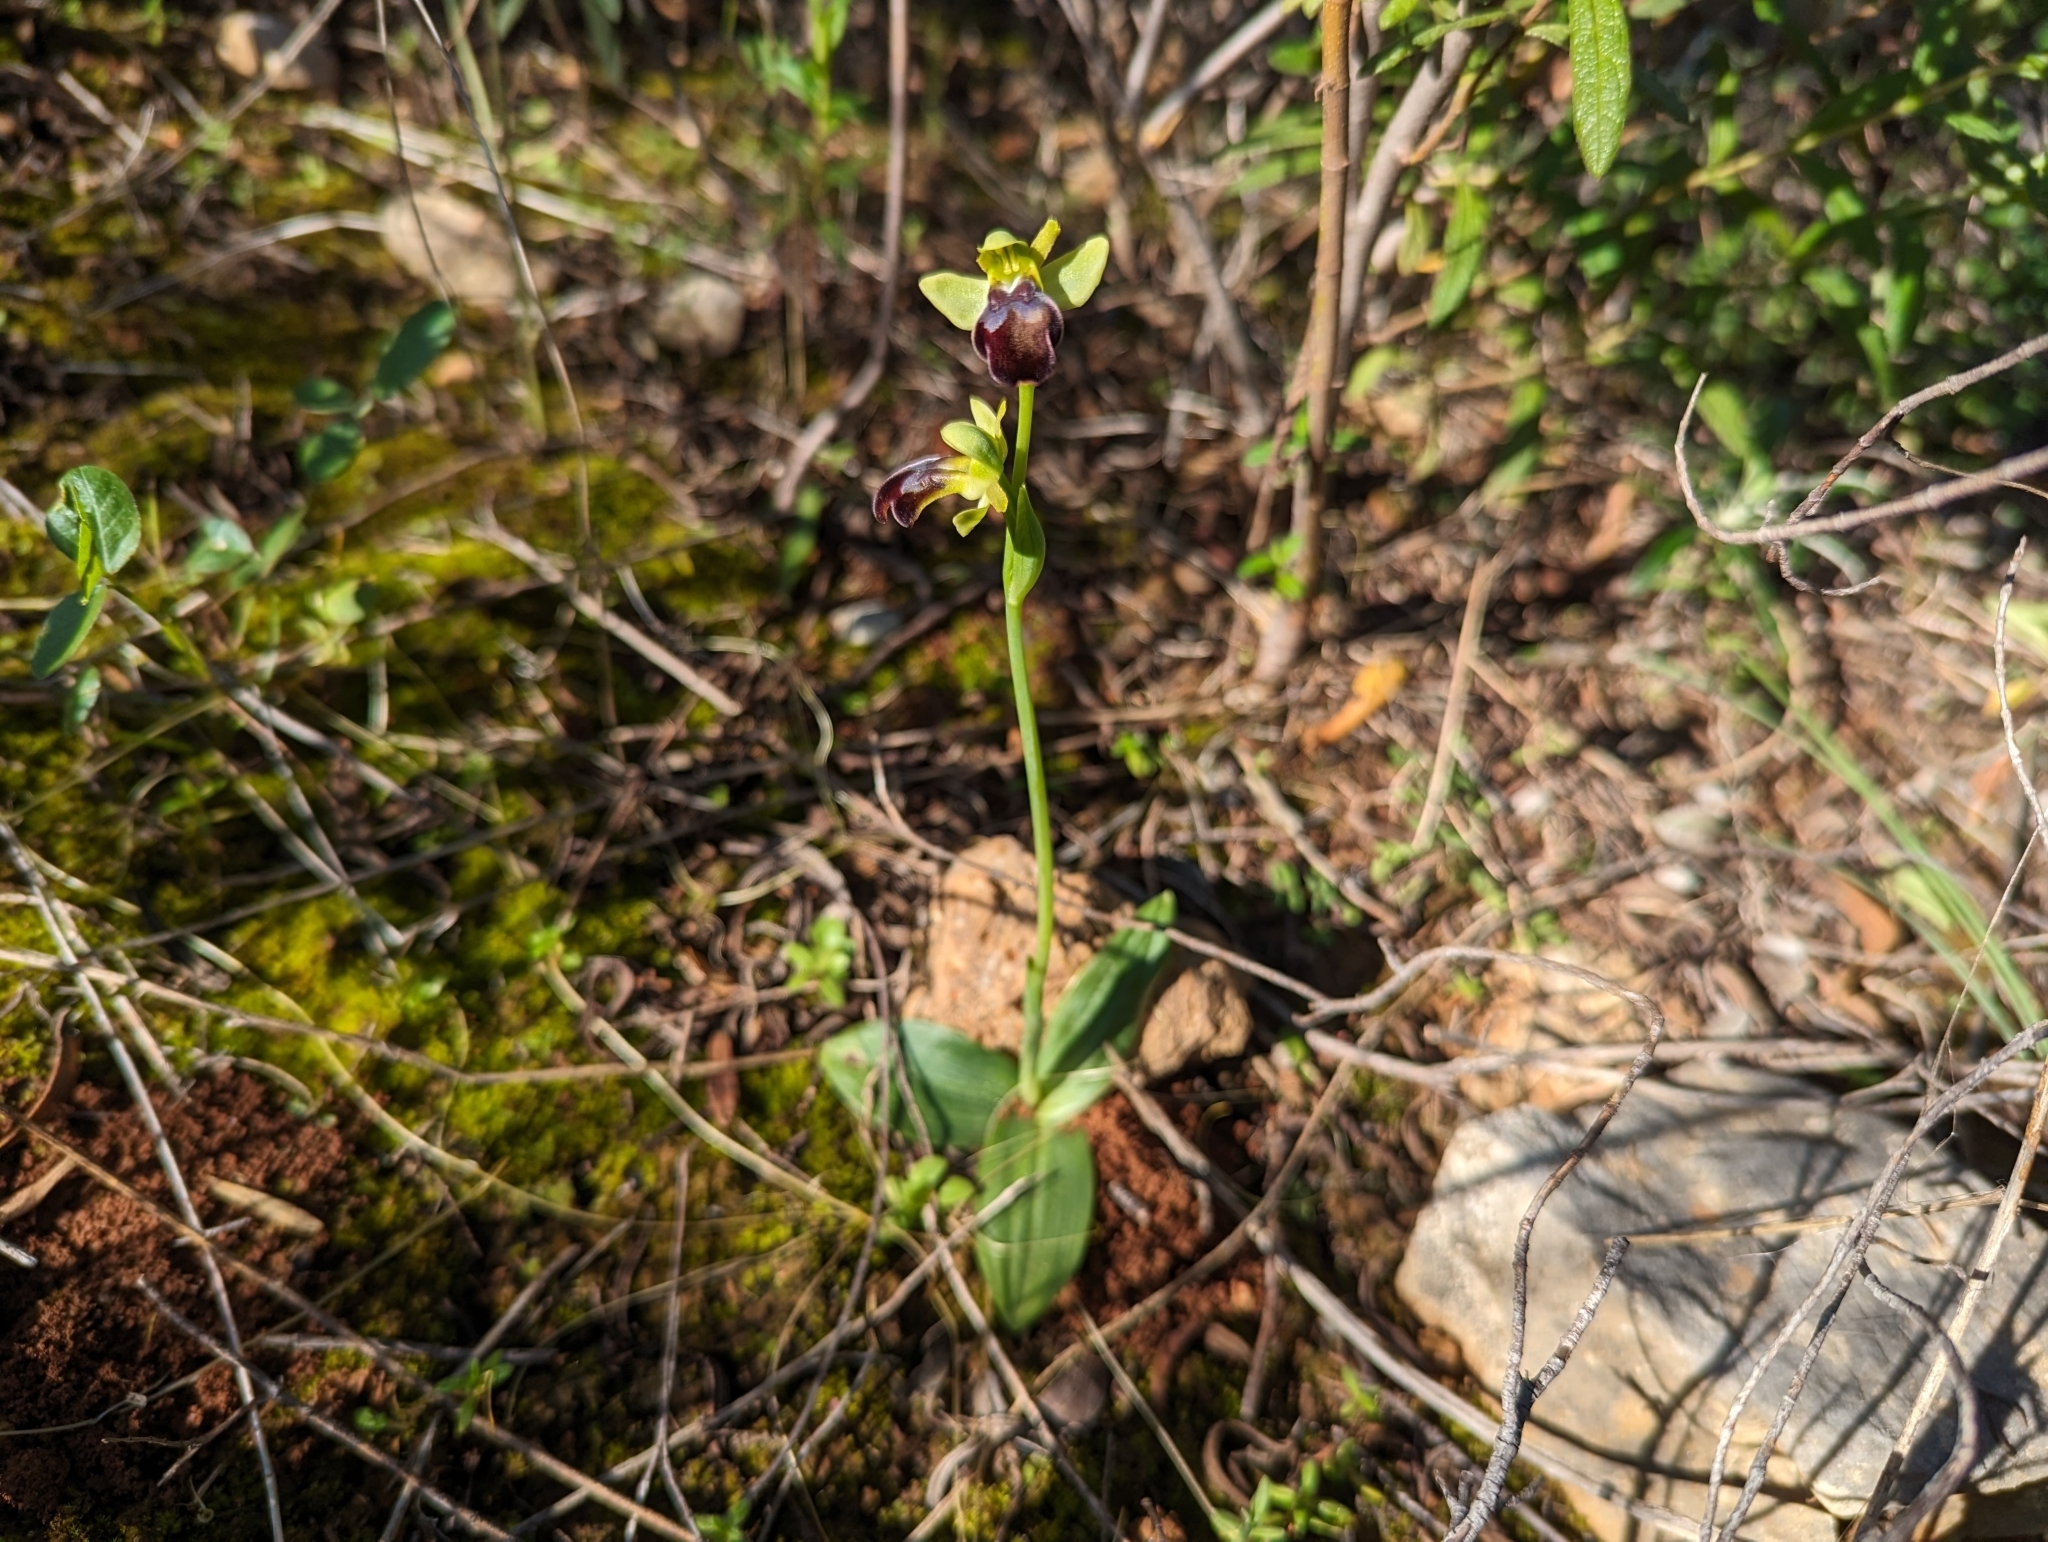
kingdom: Plantae
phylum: Tracheophyta
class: Liliopsida
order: Asparagales
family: Orchidaceae
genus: Ophrys
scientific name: Ophrys fusca
